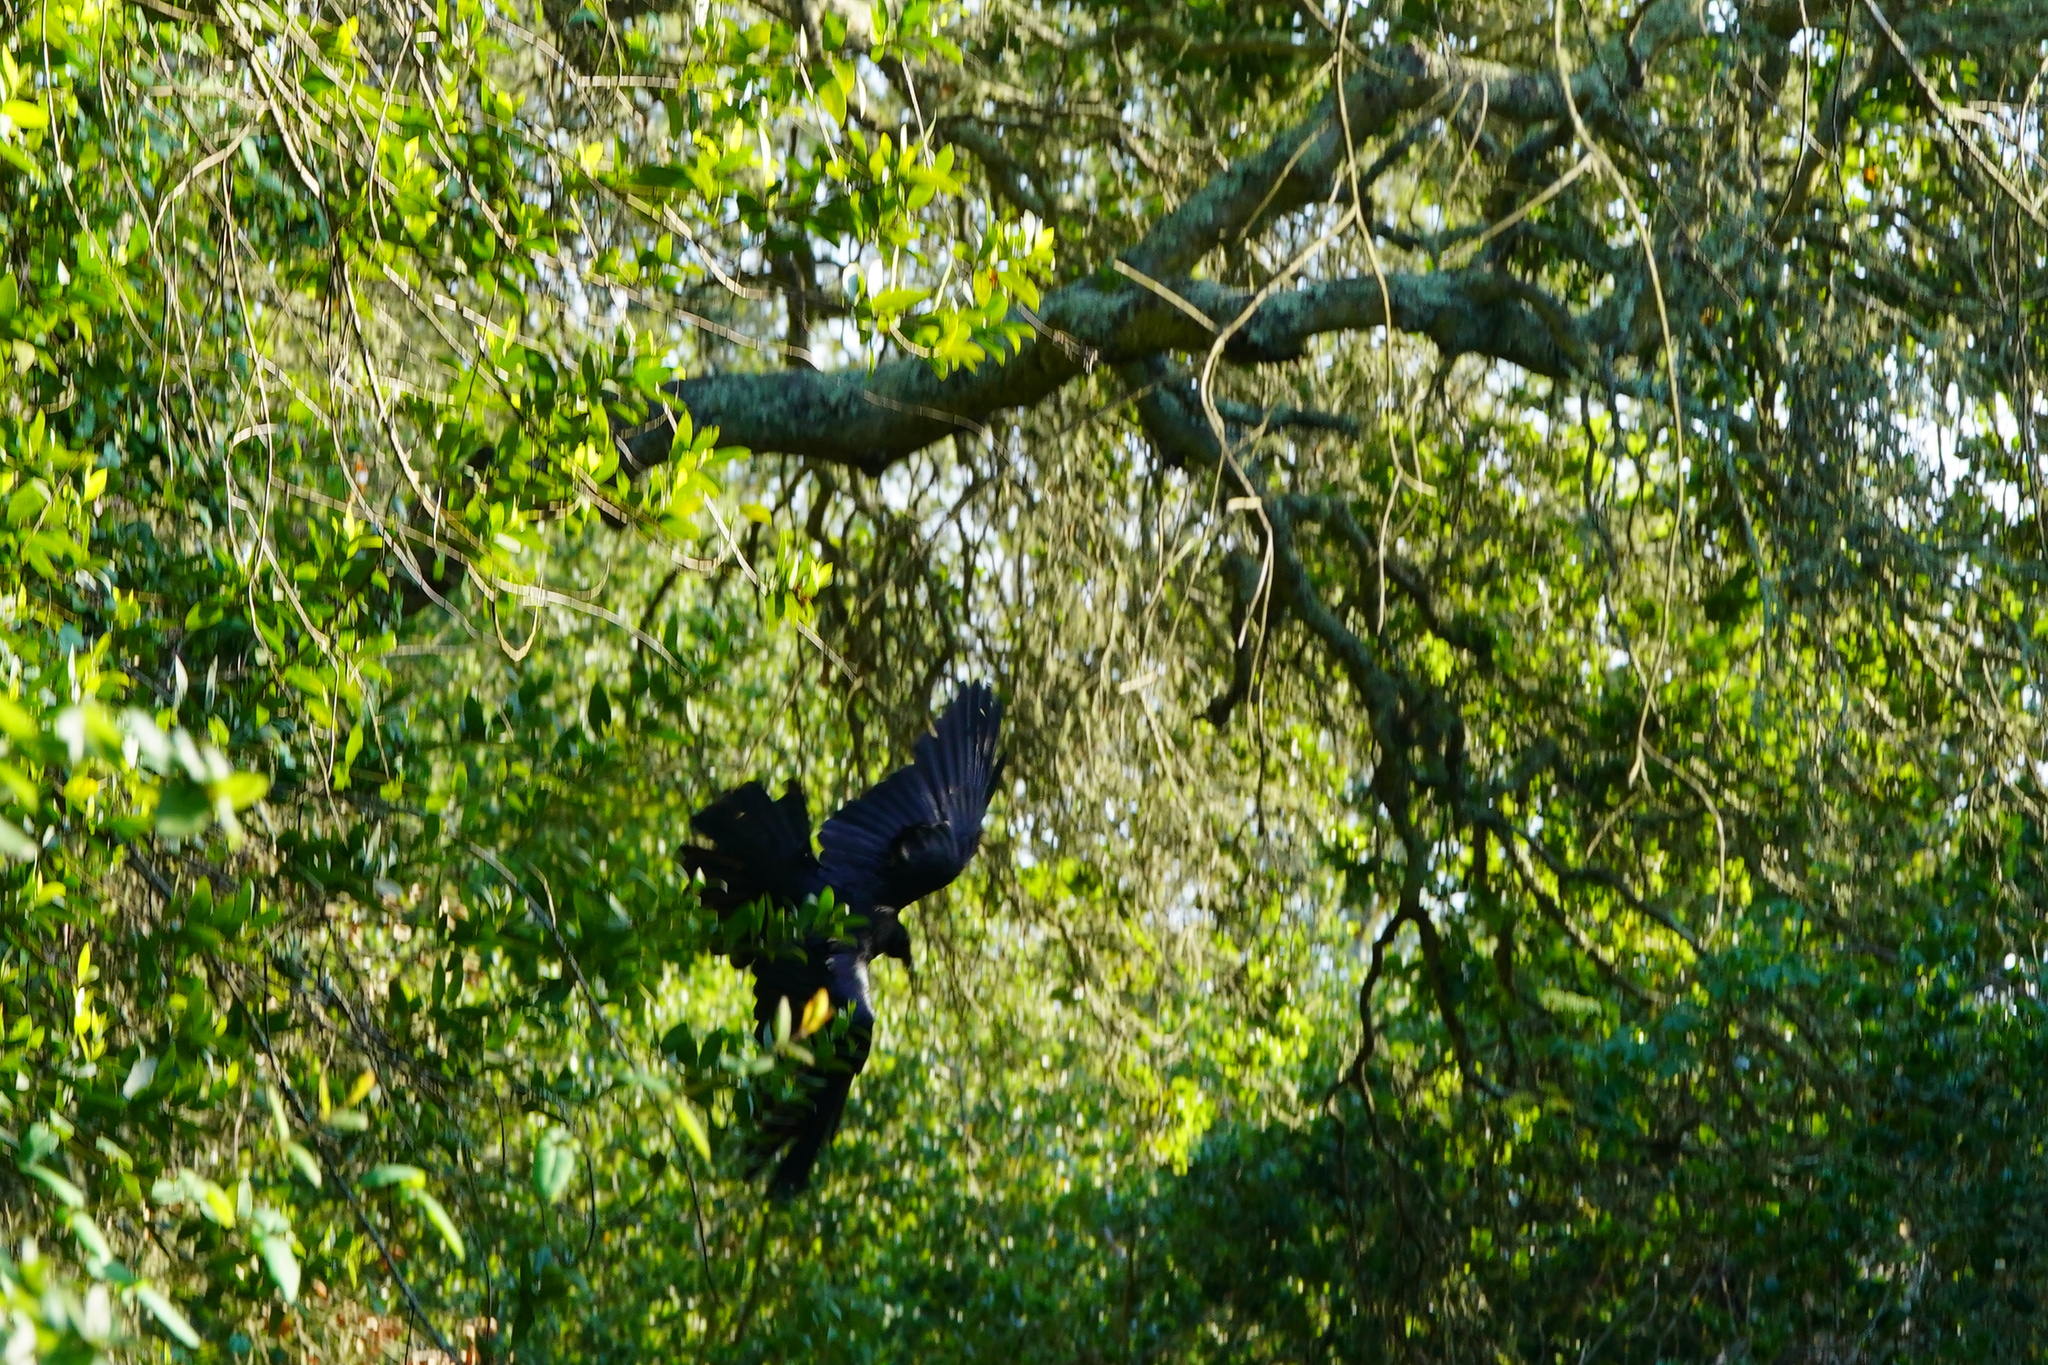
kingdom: Animalia
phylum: Chordata
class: Aves
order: Passeriformes
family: Corvidae
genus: Corvus
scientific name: Corvus corax
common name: Common raven
